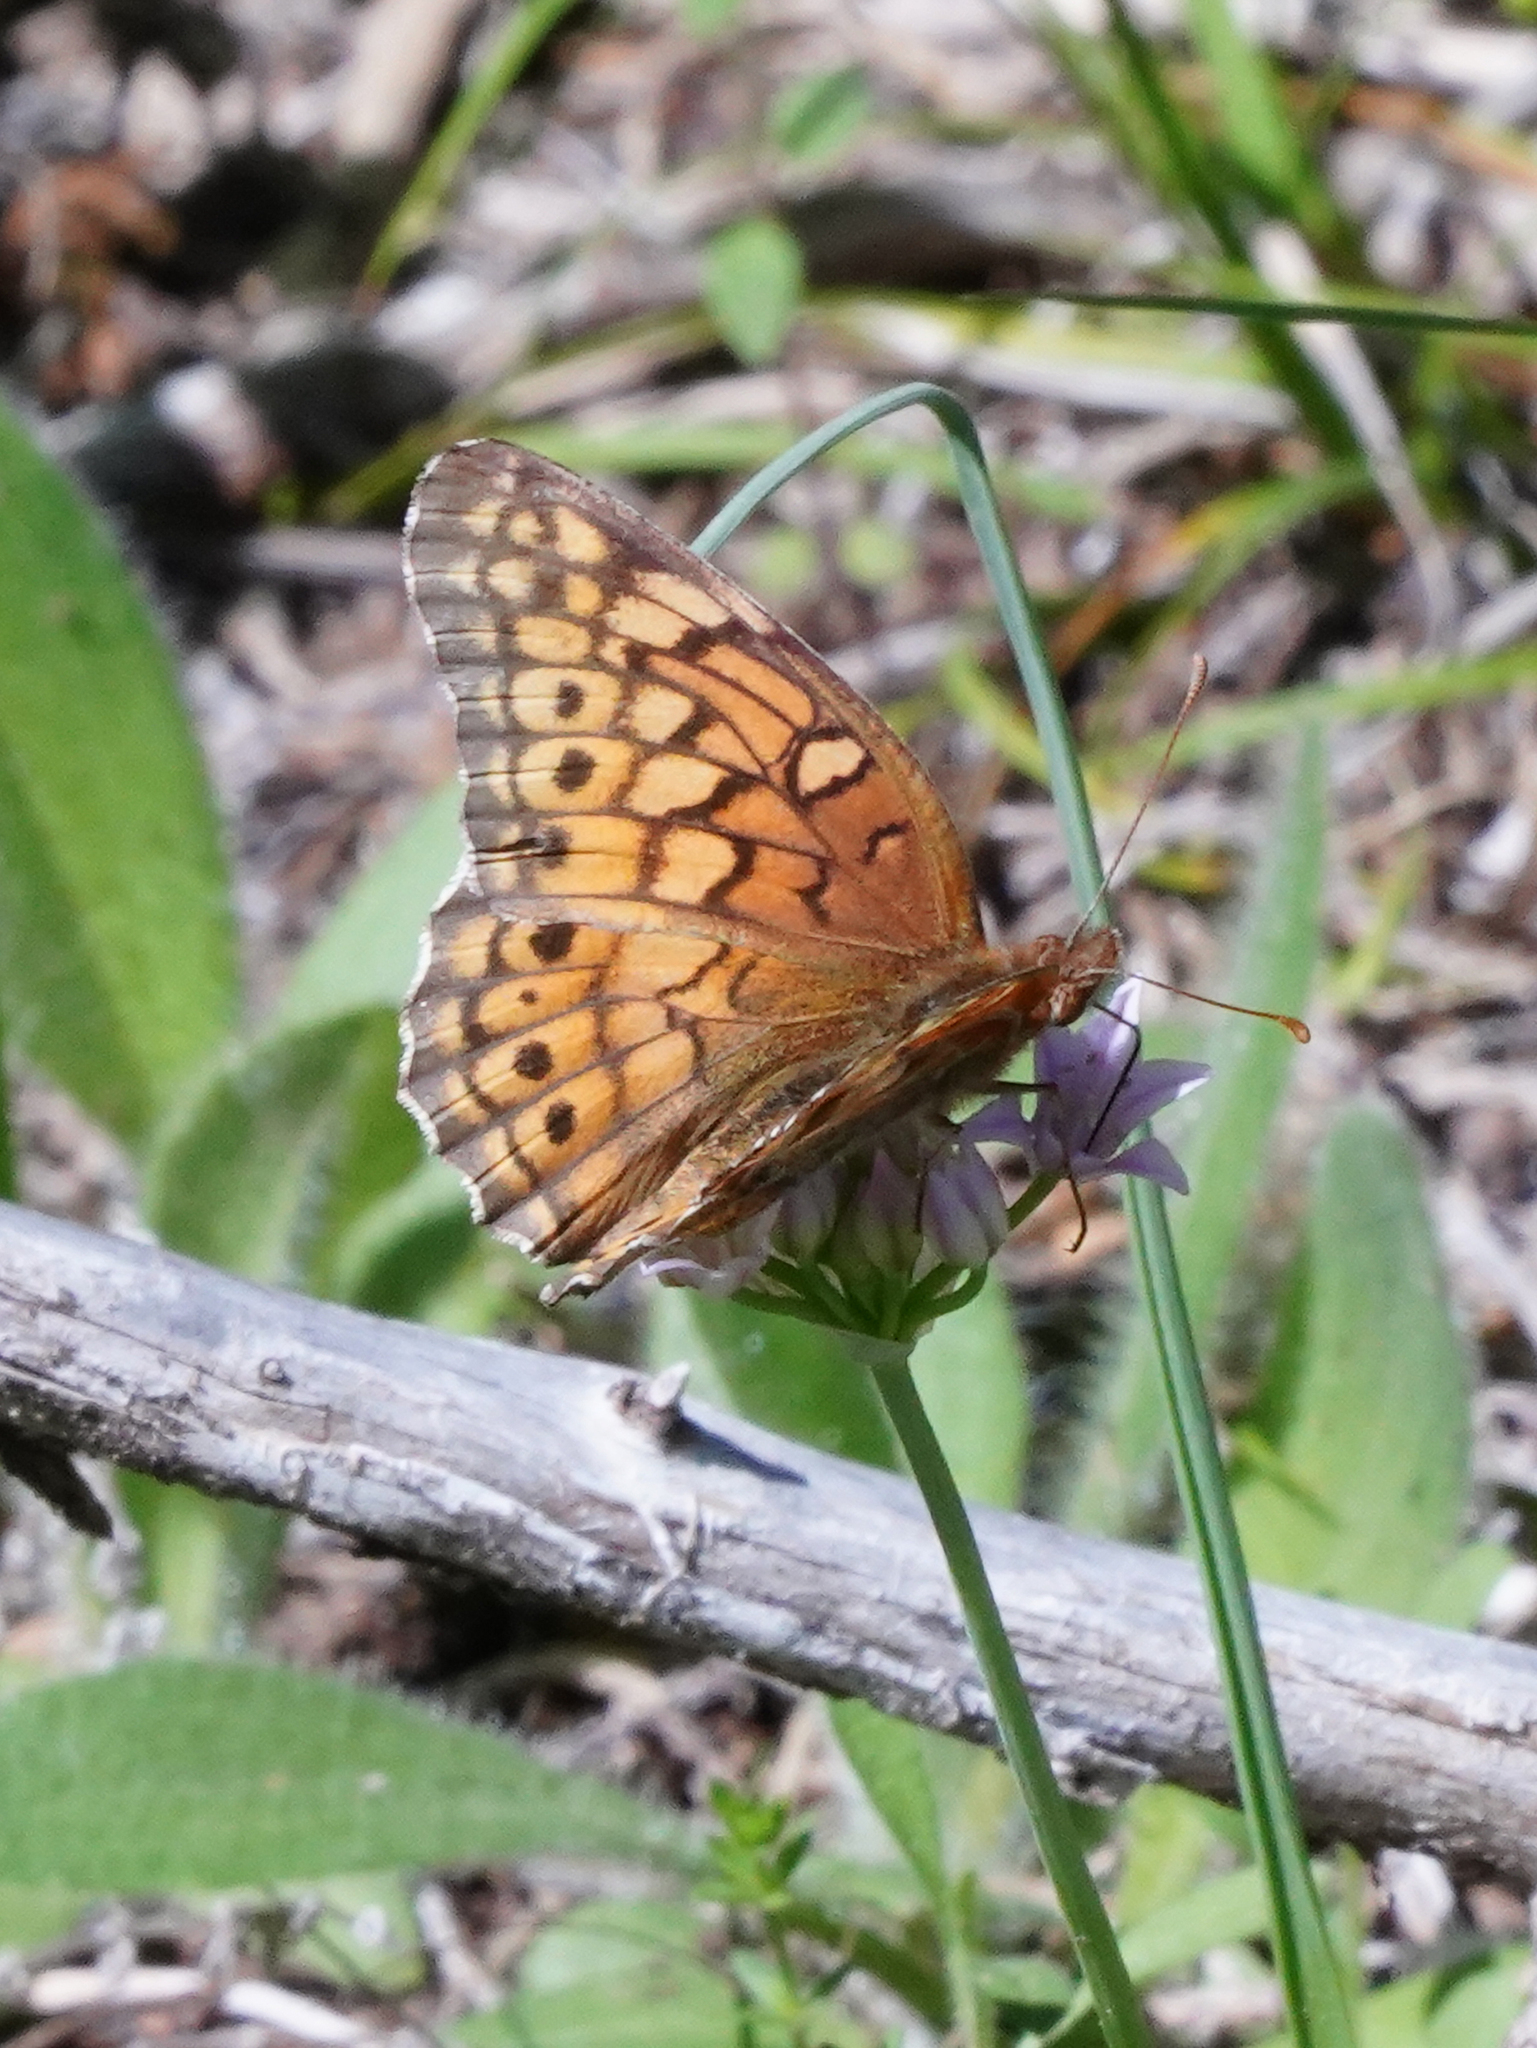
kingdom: Animalia
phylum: Arthropoda
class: Insecta
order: Lepidoptera
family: Nymphalidae
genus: Euptoieta
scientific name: Euptoieta claudia
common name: Variegated fritillary
